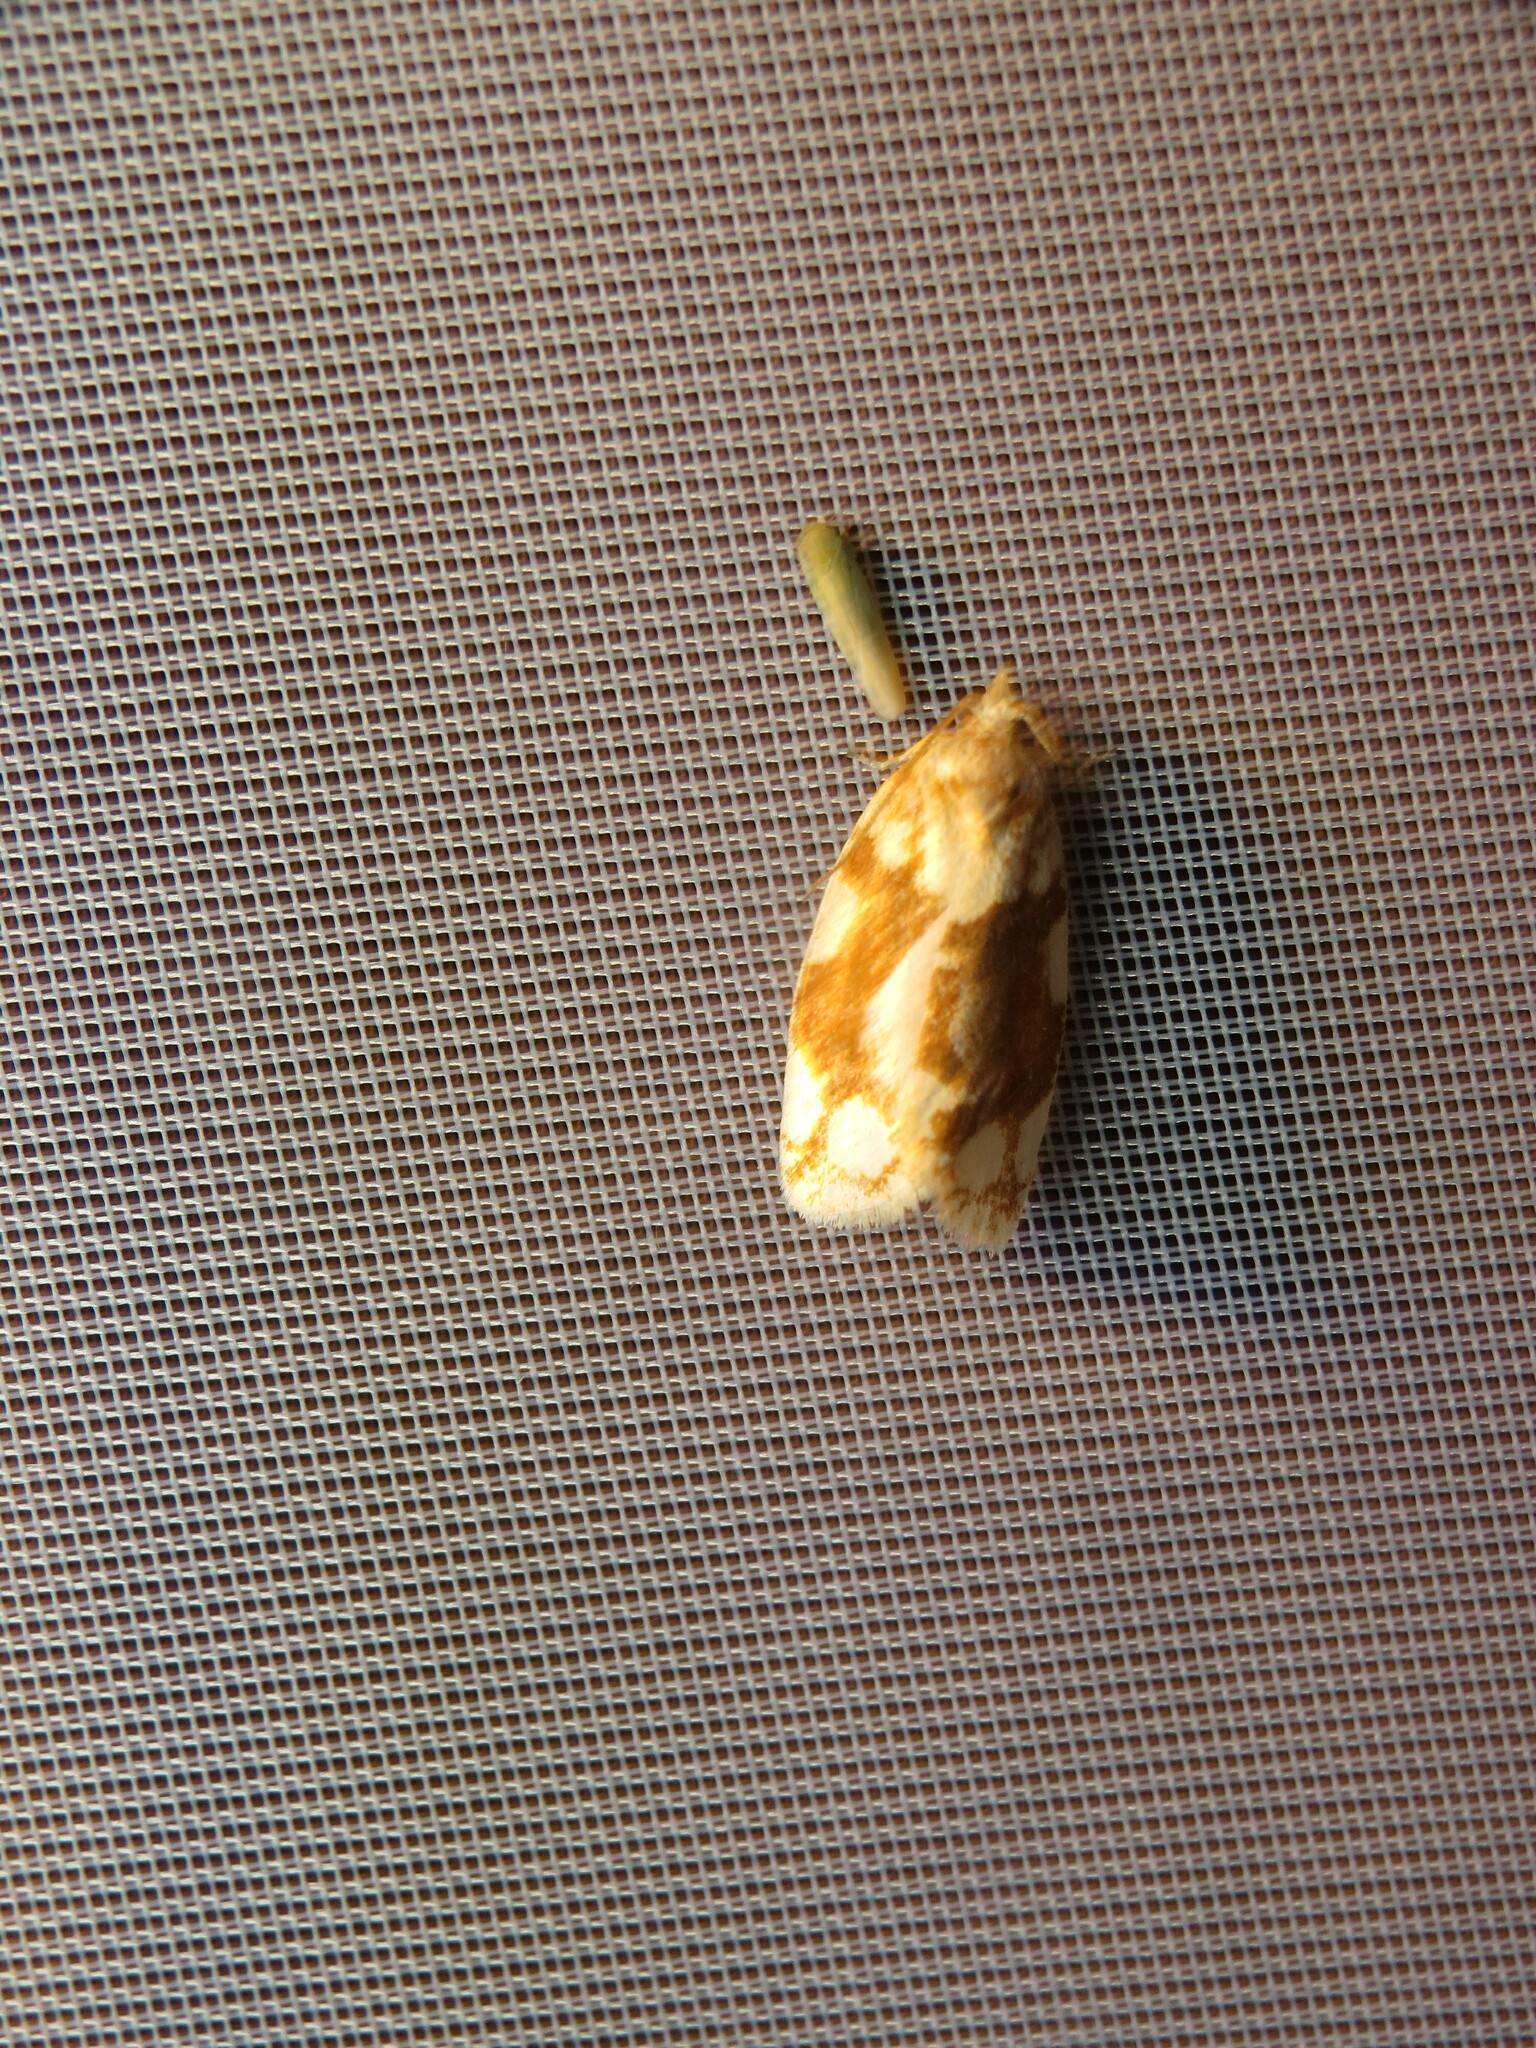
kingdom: Animalia
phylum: Arthropoda
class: Insecta
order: Lepidoptera
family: Tortricidae
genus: Argyrotaenia
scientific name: Argyrotaenia alisellana
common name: White-spotted leafroller moth
